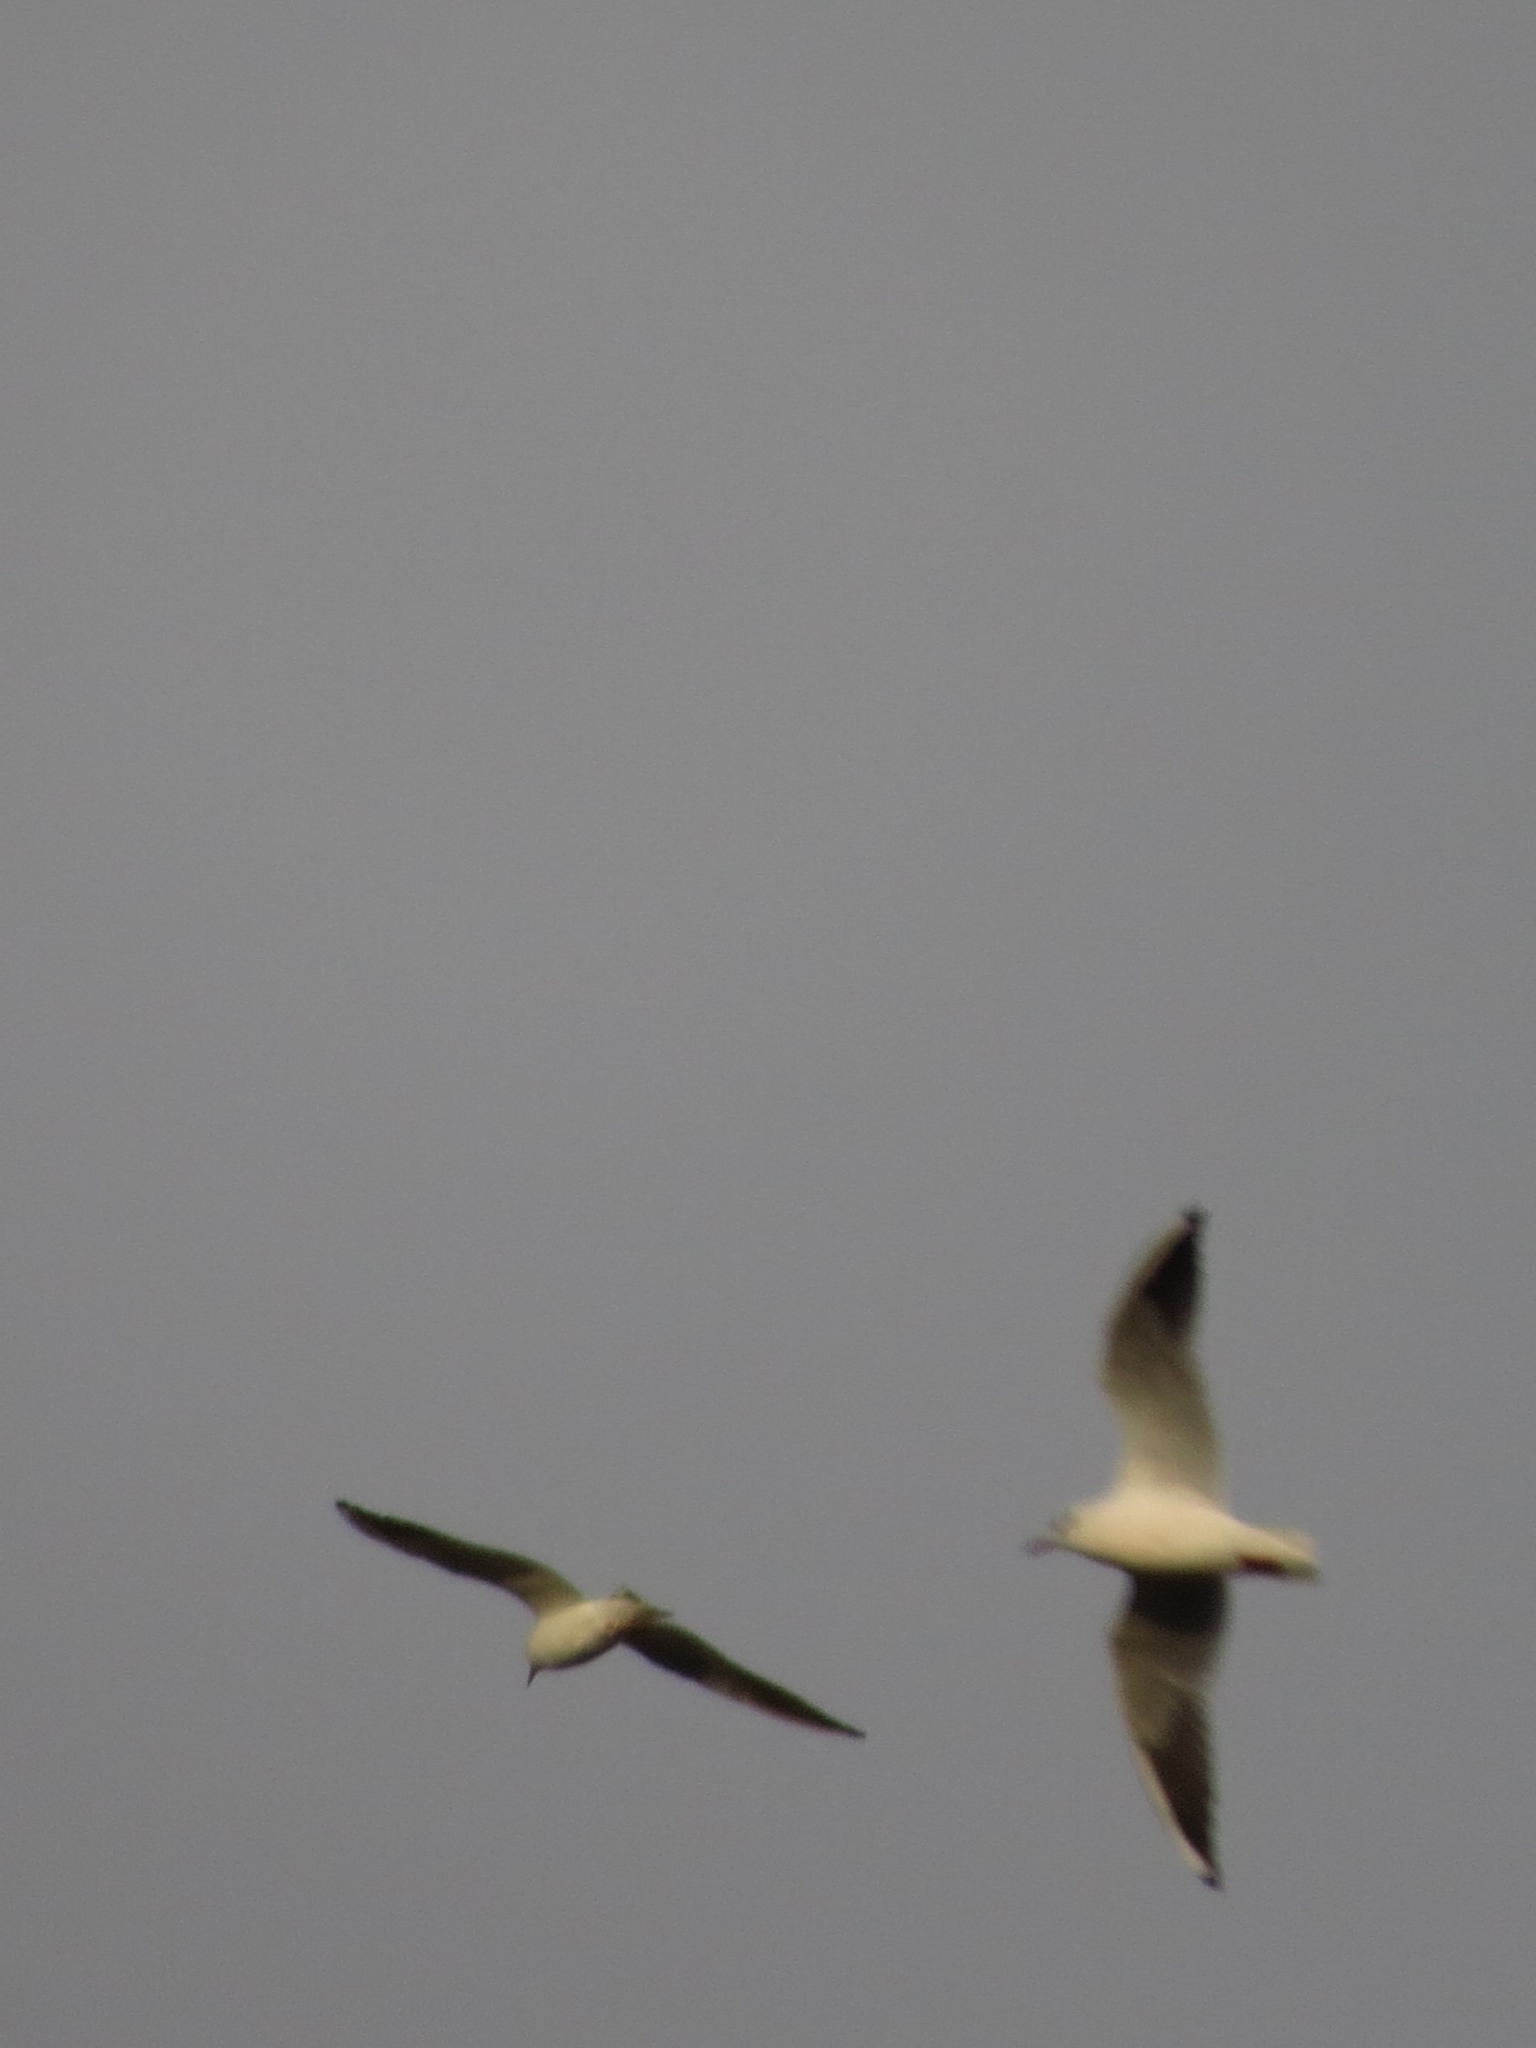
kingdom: Animalia
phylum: Chordata
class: Aves
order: Charadriiformes
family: Laridae
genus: Chroicocephalus
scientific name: Chroicocephalus ridibundus
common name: Black-headed gull
